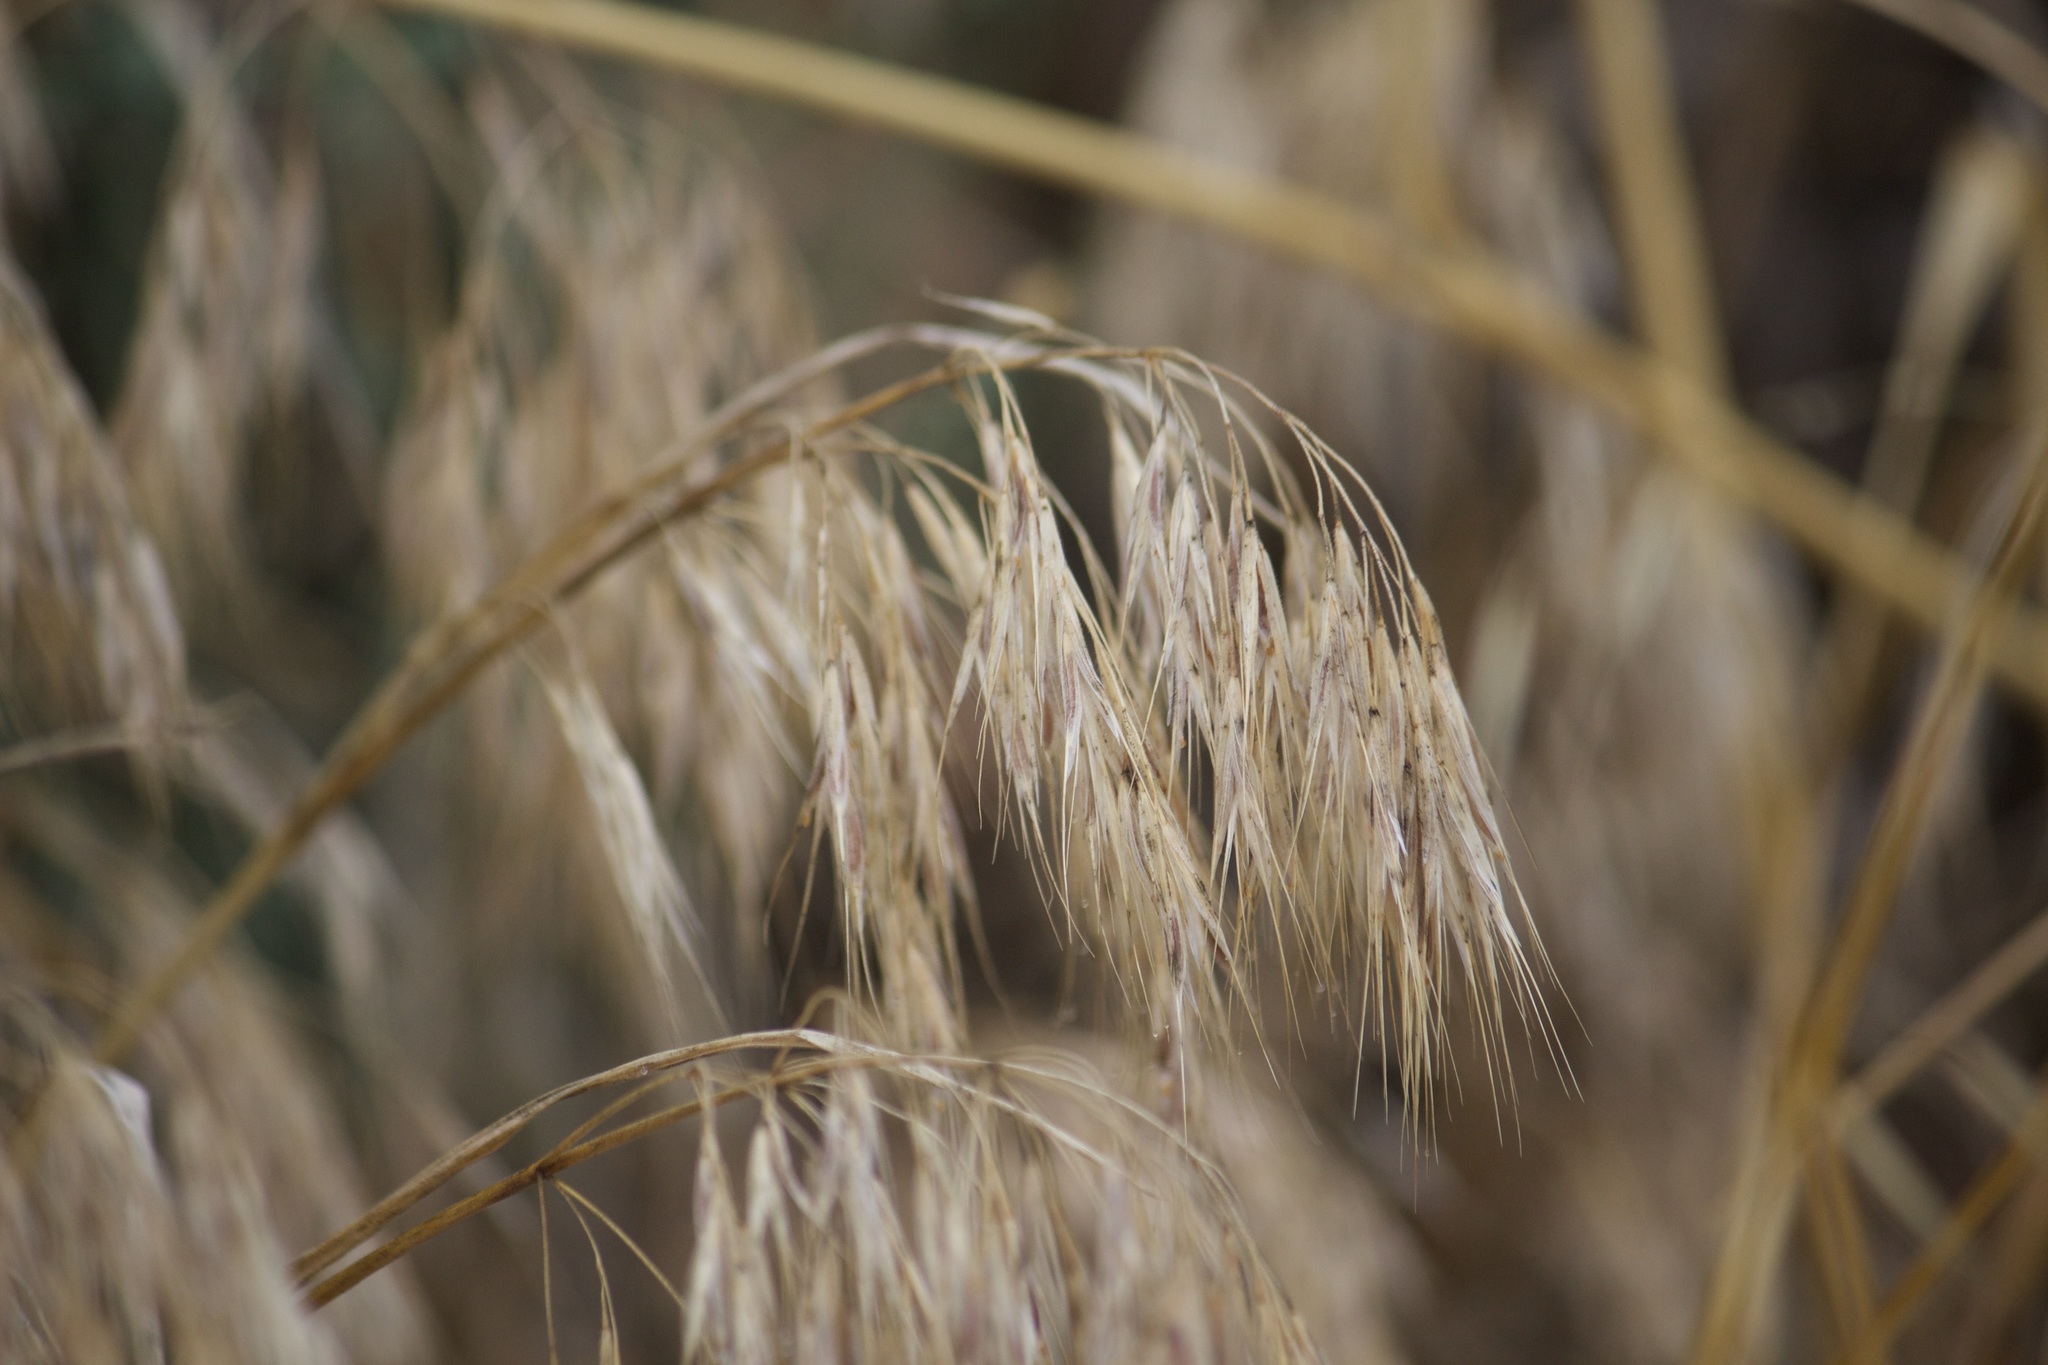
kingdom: Plantae
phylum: Tracheophyta
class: Liliopsida
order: Poales
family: Poaceae
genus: Bromus
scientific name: Bromus tectorum
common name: Cheatgrass
